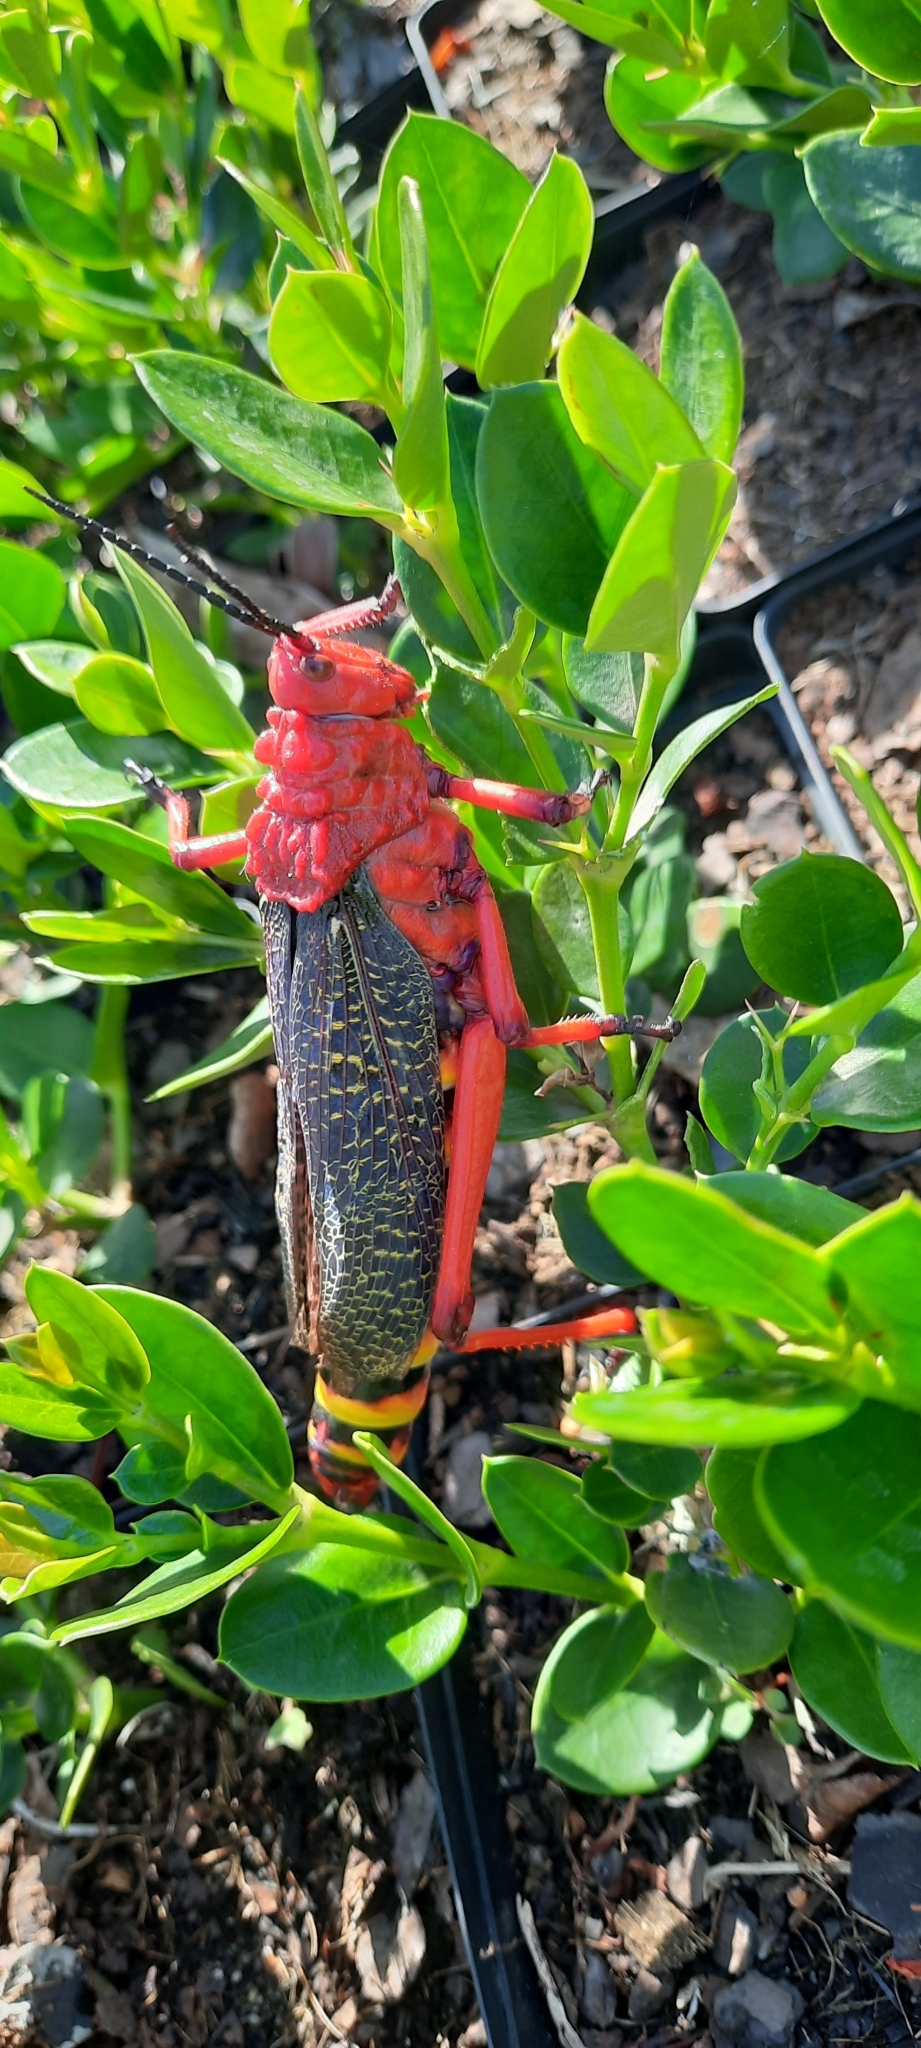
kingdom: Animalia
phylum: Arthropoda
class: Insecta
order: Orthoptera
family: Pyrgomorphidae
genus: Phymateus
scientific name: Phymateus morbillosus
